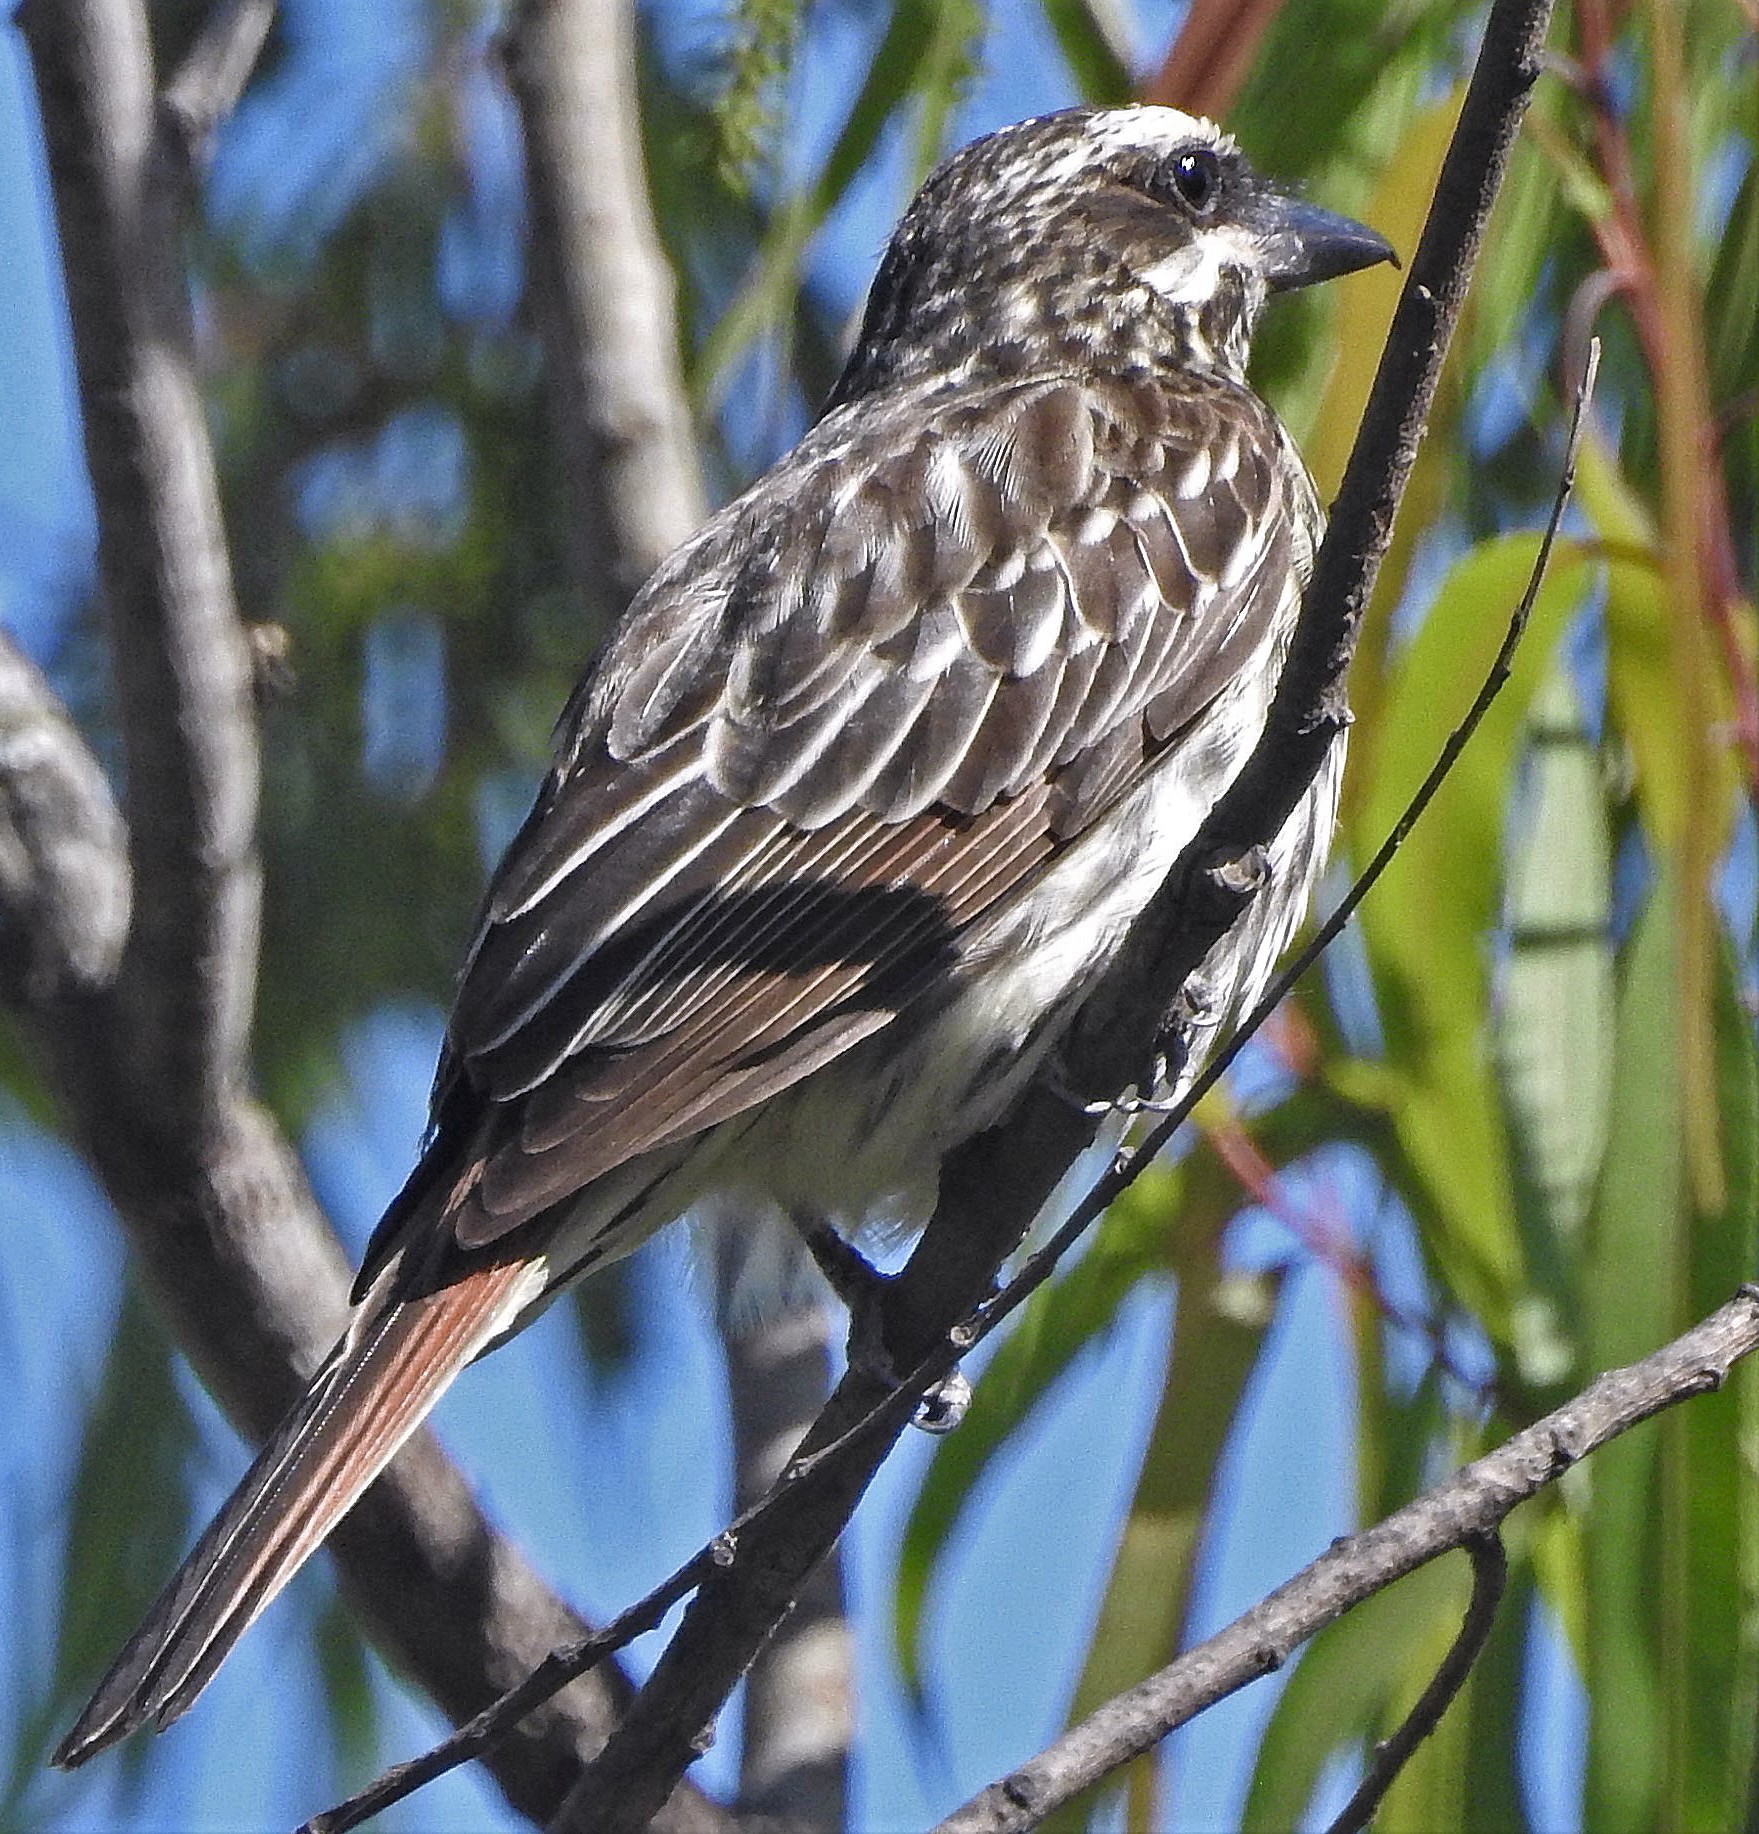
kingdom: Animalia
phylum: Chordata
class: Aves
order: Passeriformes
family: Tyrannidae
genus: Myiodynastes
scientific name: Myiodynastes maculatus
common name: Streaked flycatcher
